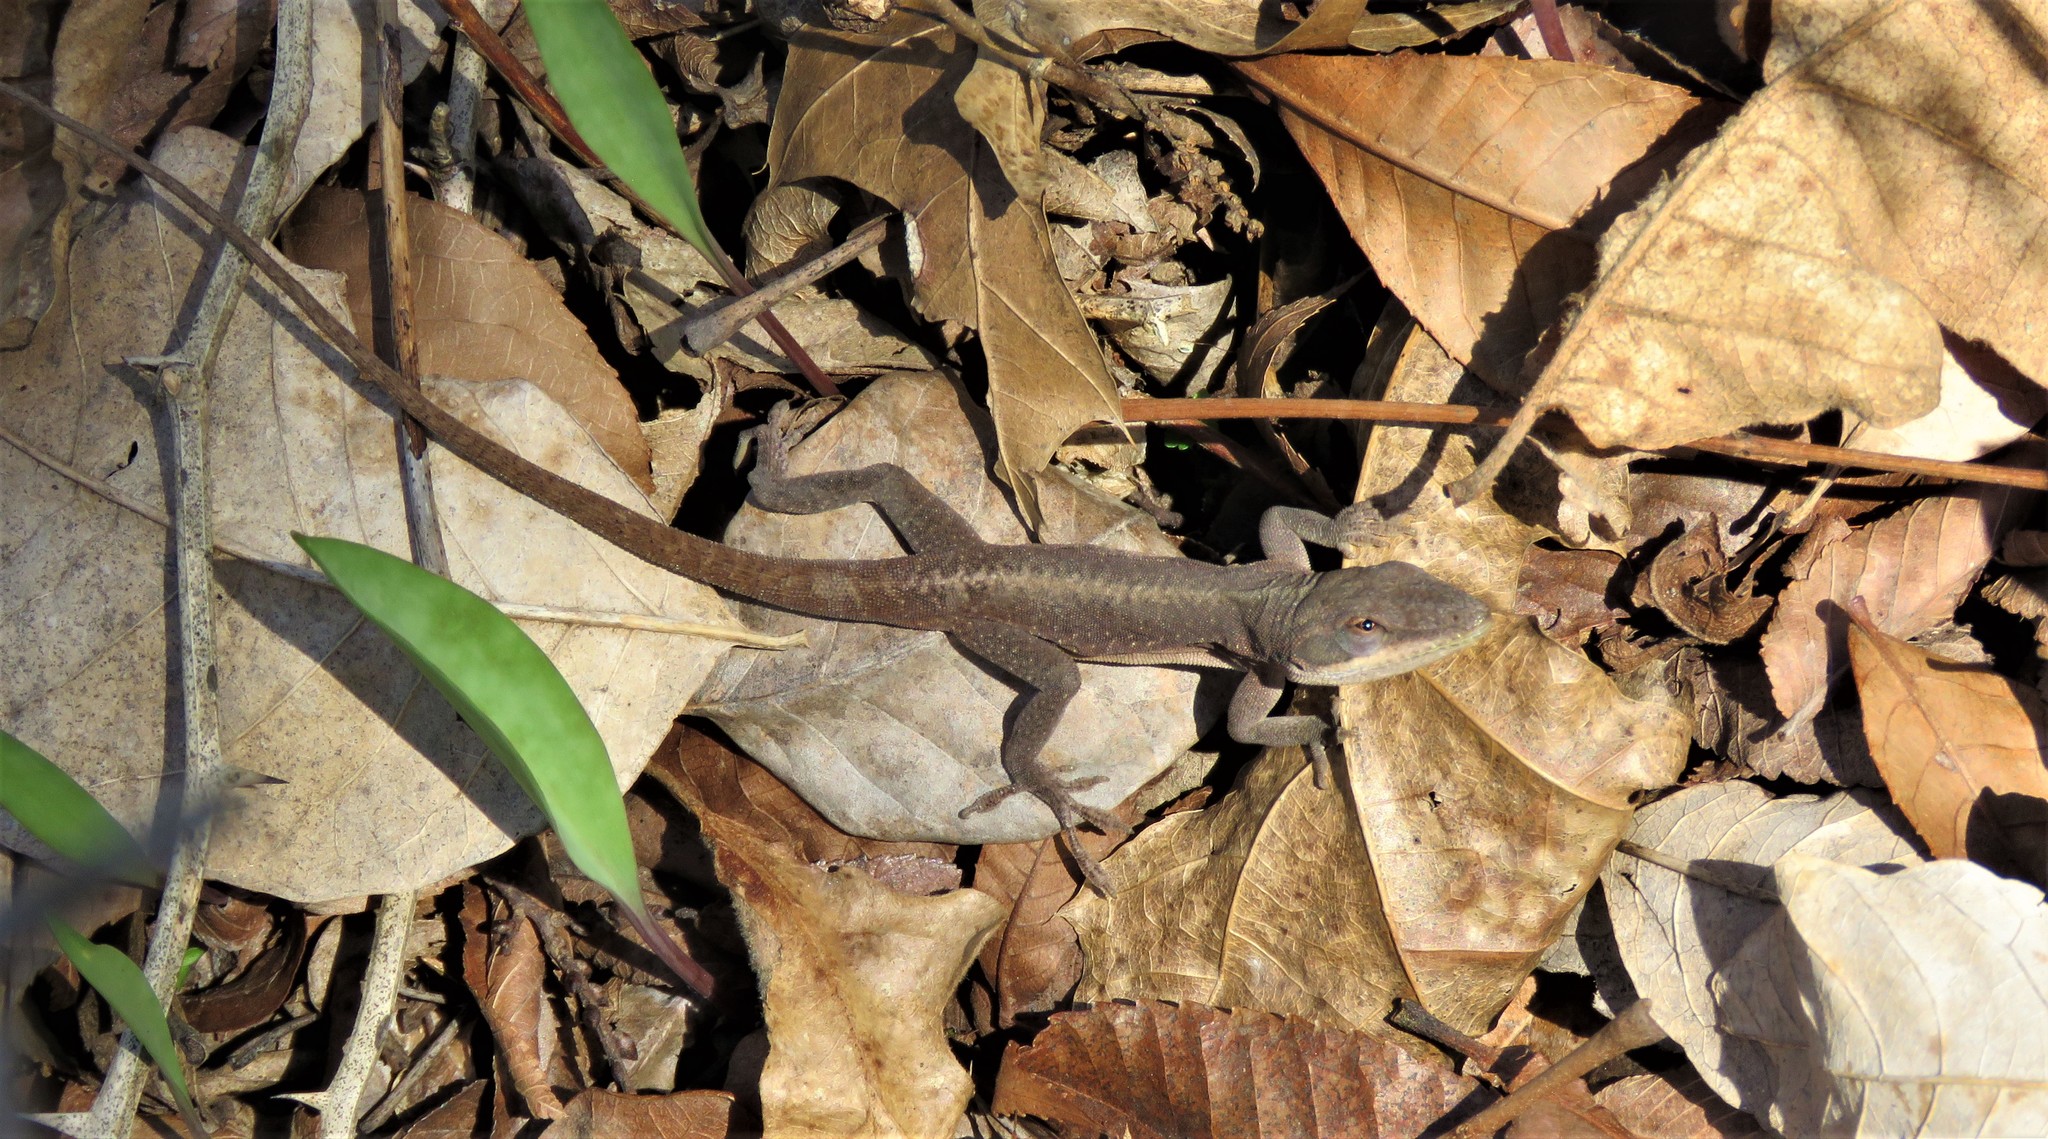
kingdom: Animalia
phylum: Chordata
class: Squamata
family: Dactyloidae
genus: Anolis
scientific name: Anolis carolinensis
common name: Green anole
